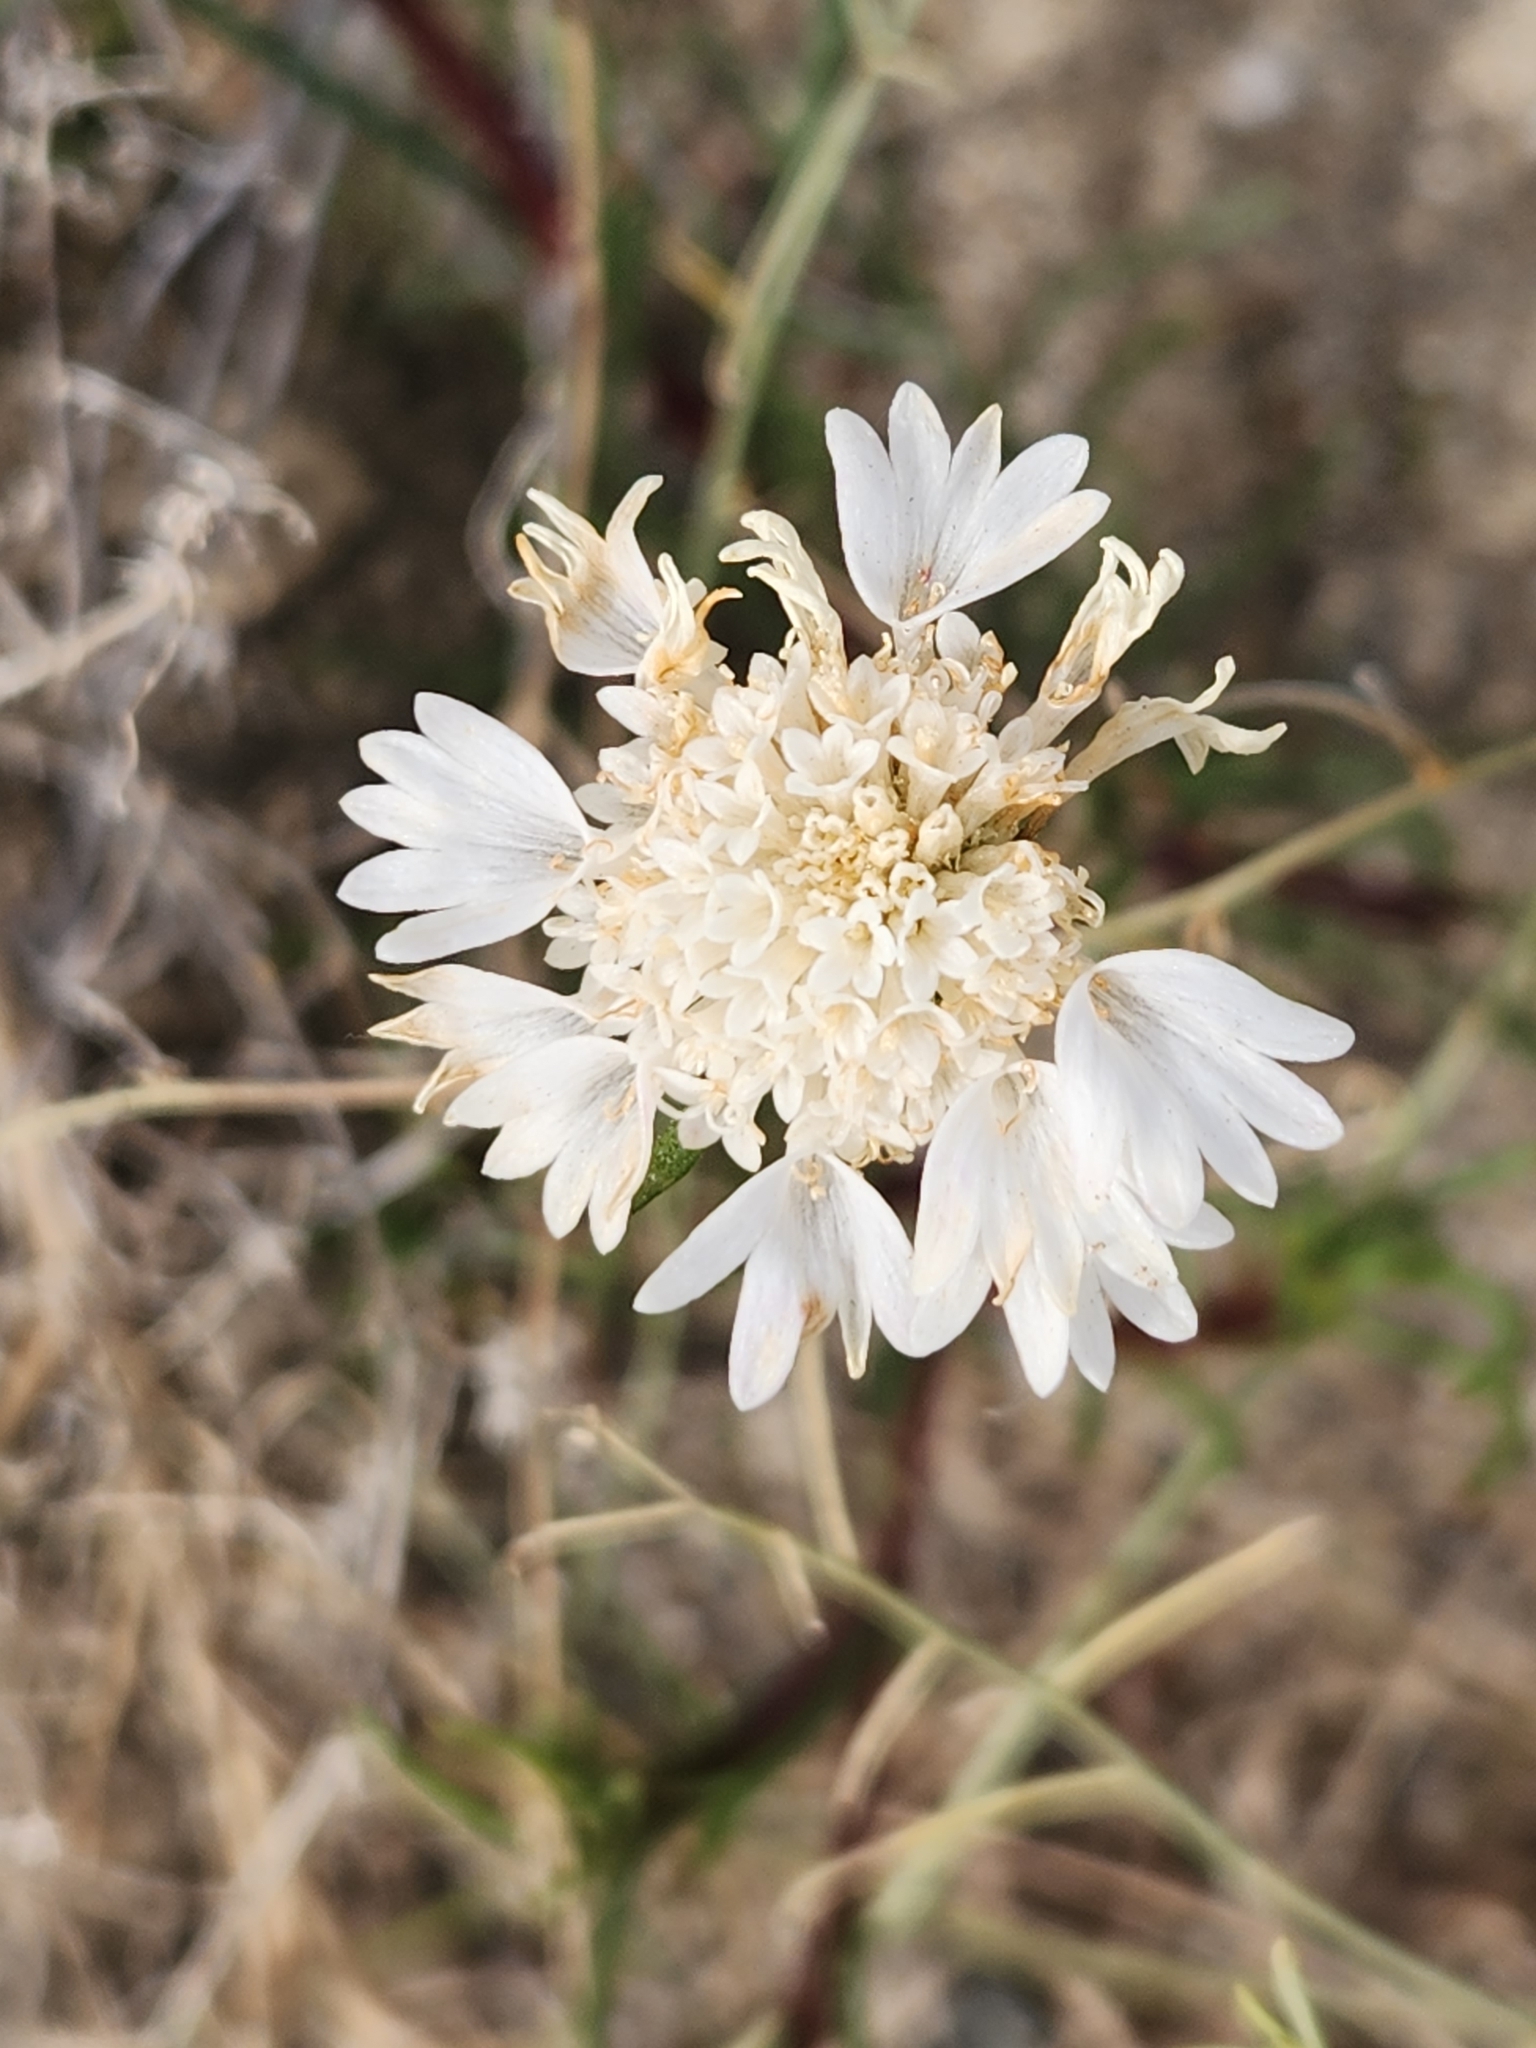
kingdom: Plantae
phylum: Tracheophyta
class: Magnoliopsida
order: Asterales
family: Asteraceae
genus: Chaenactis
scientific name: Chaenactis fremontii
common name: Fremont pincushion
